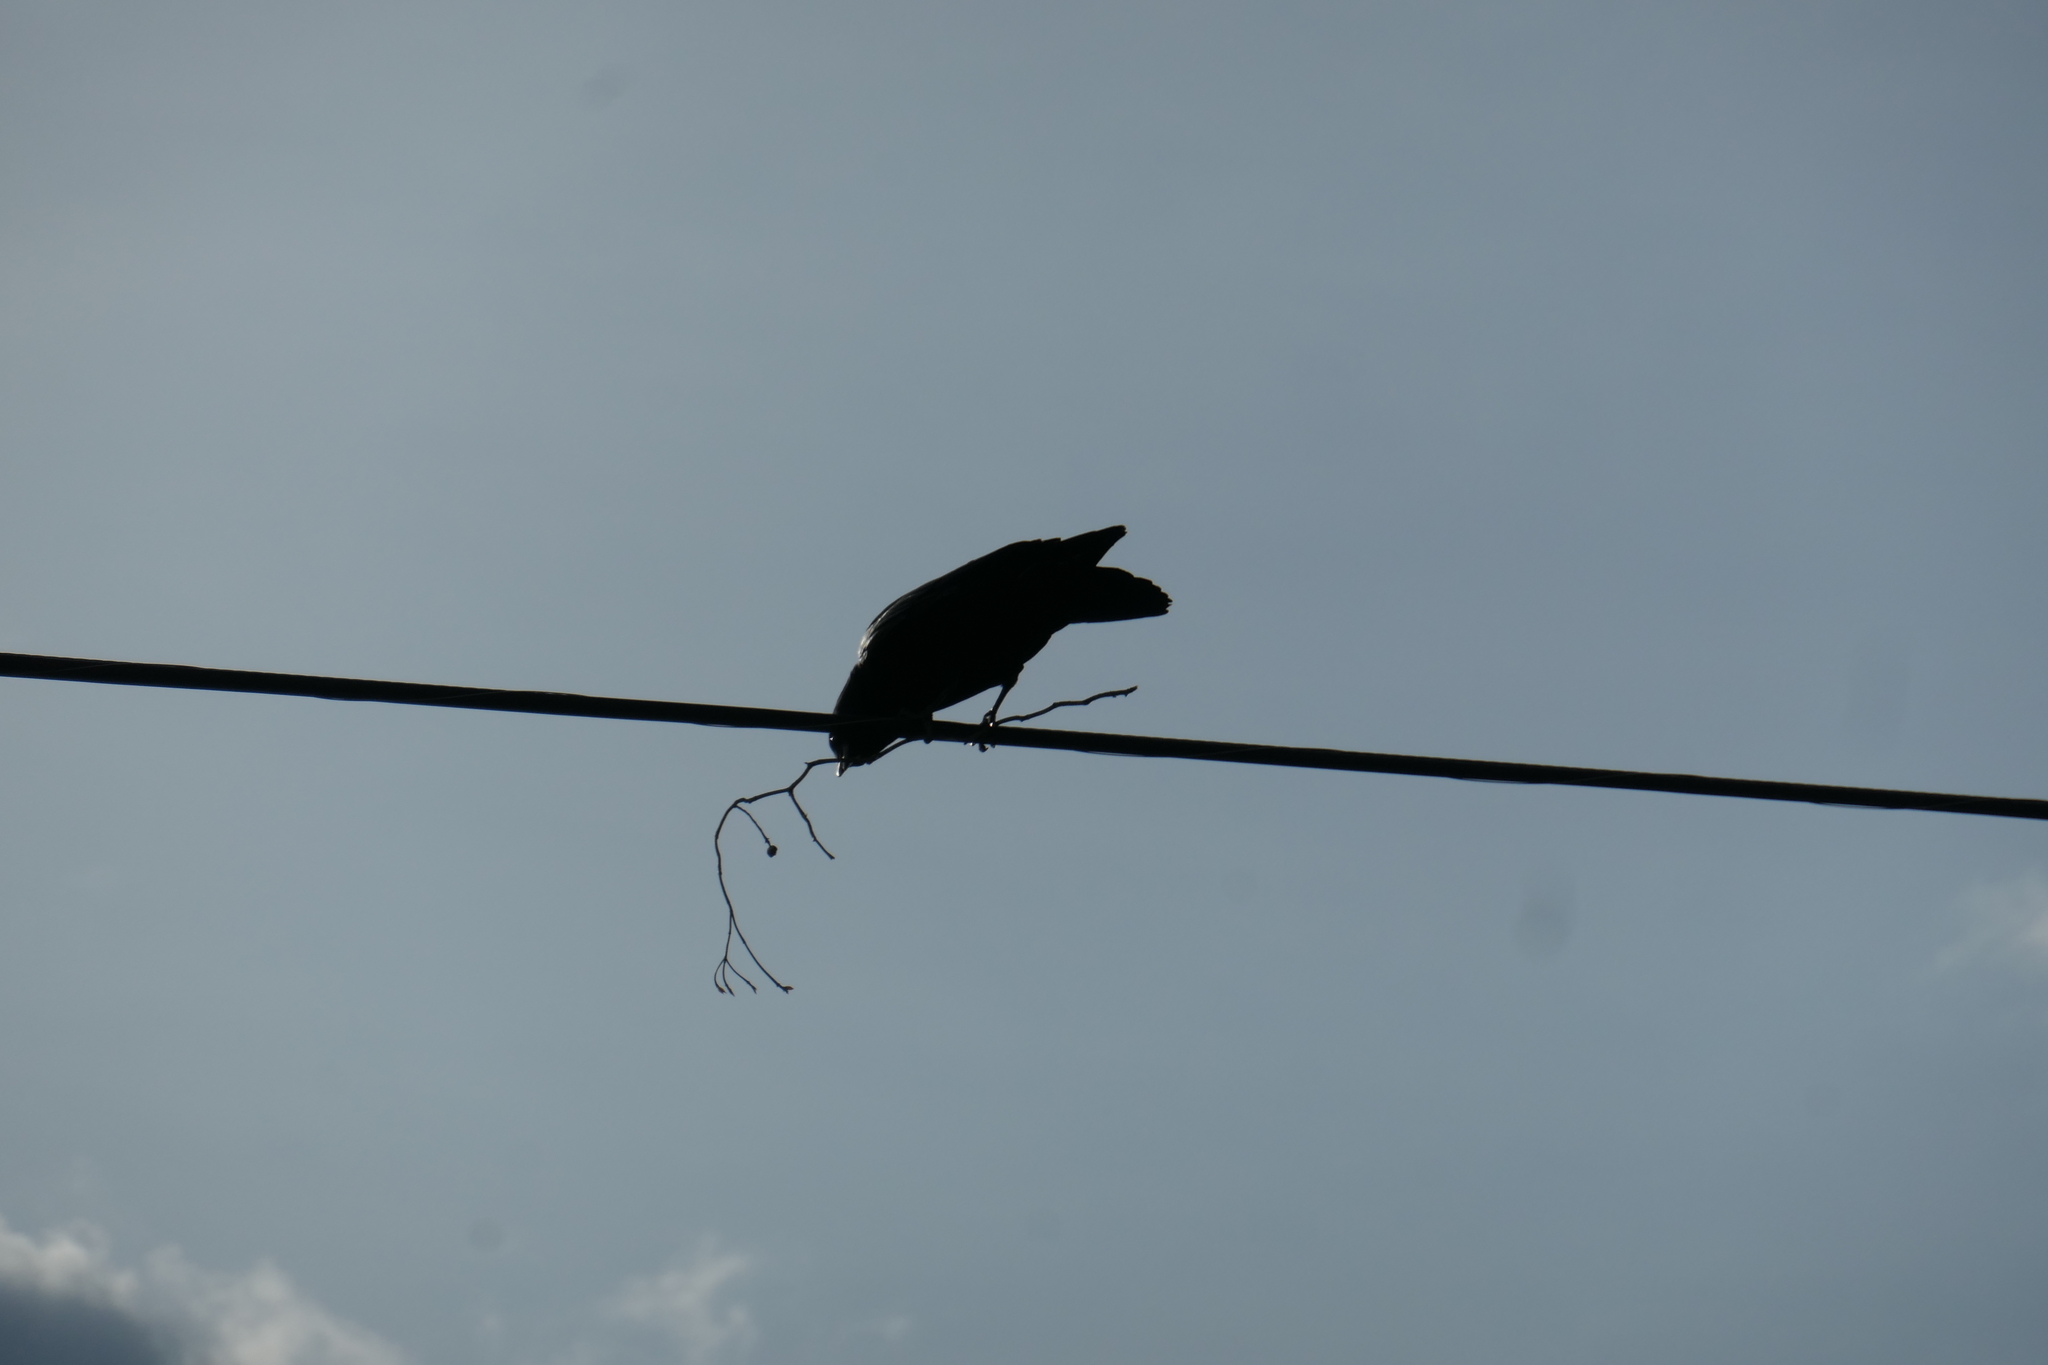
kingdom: Animalia
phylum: Chordata
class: Aves
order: Passeriformes
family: Corvidae
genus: Corvus
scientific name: Corvus brachyrhynchos
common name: American crow
